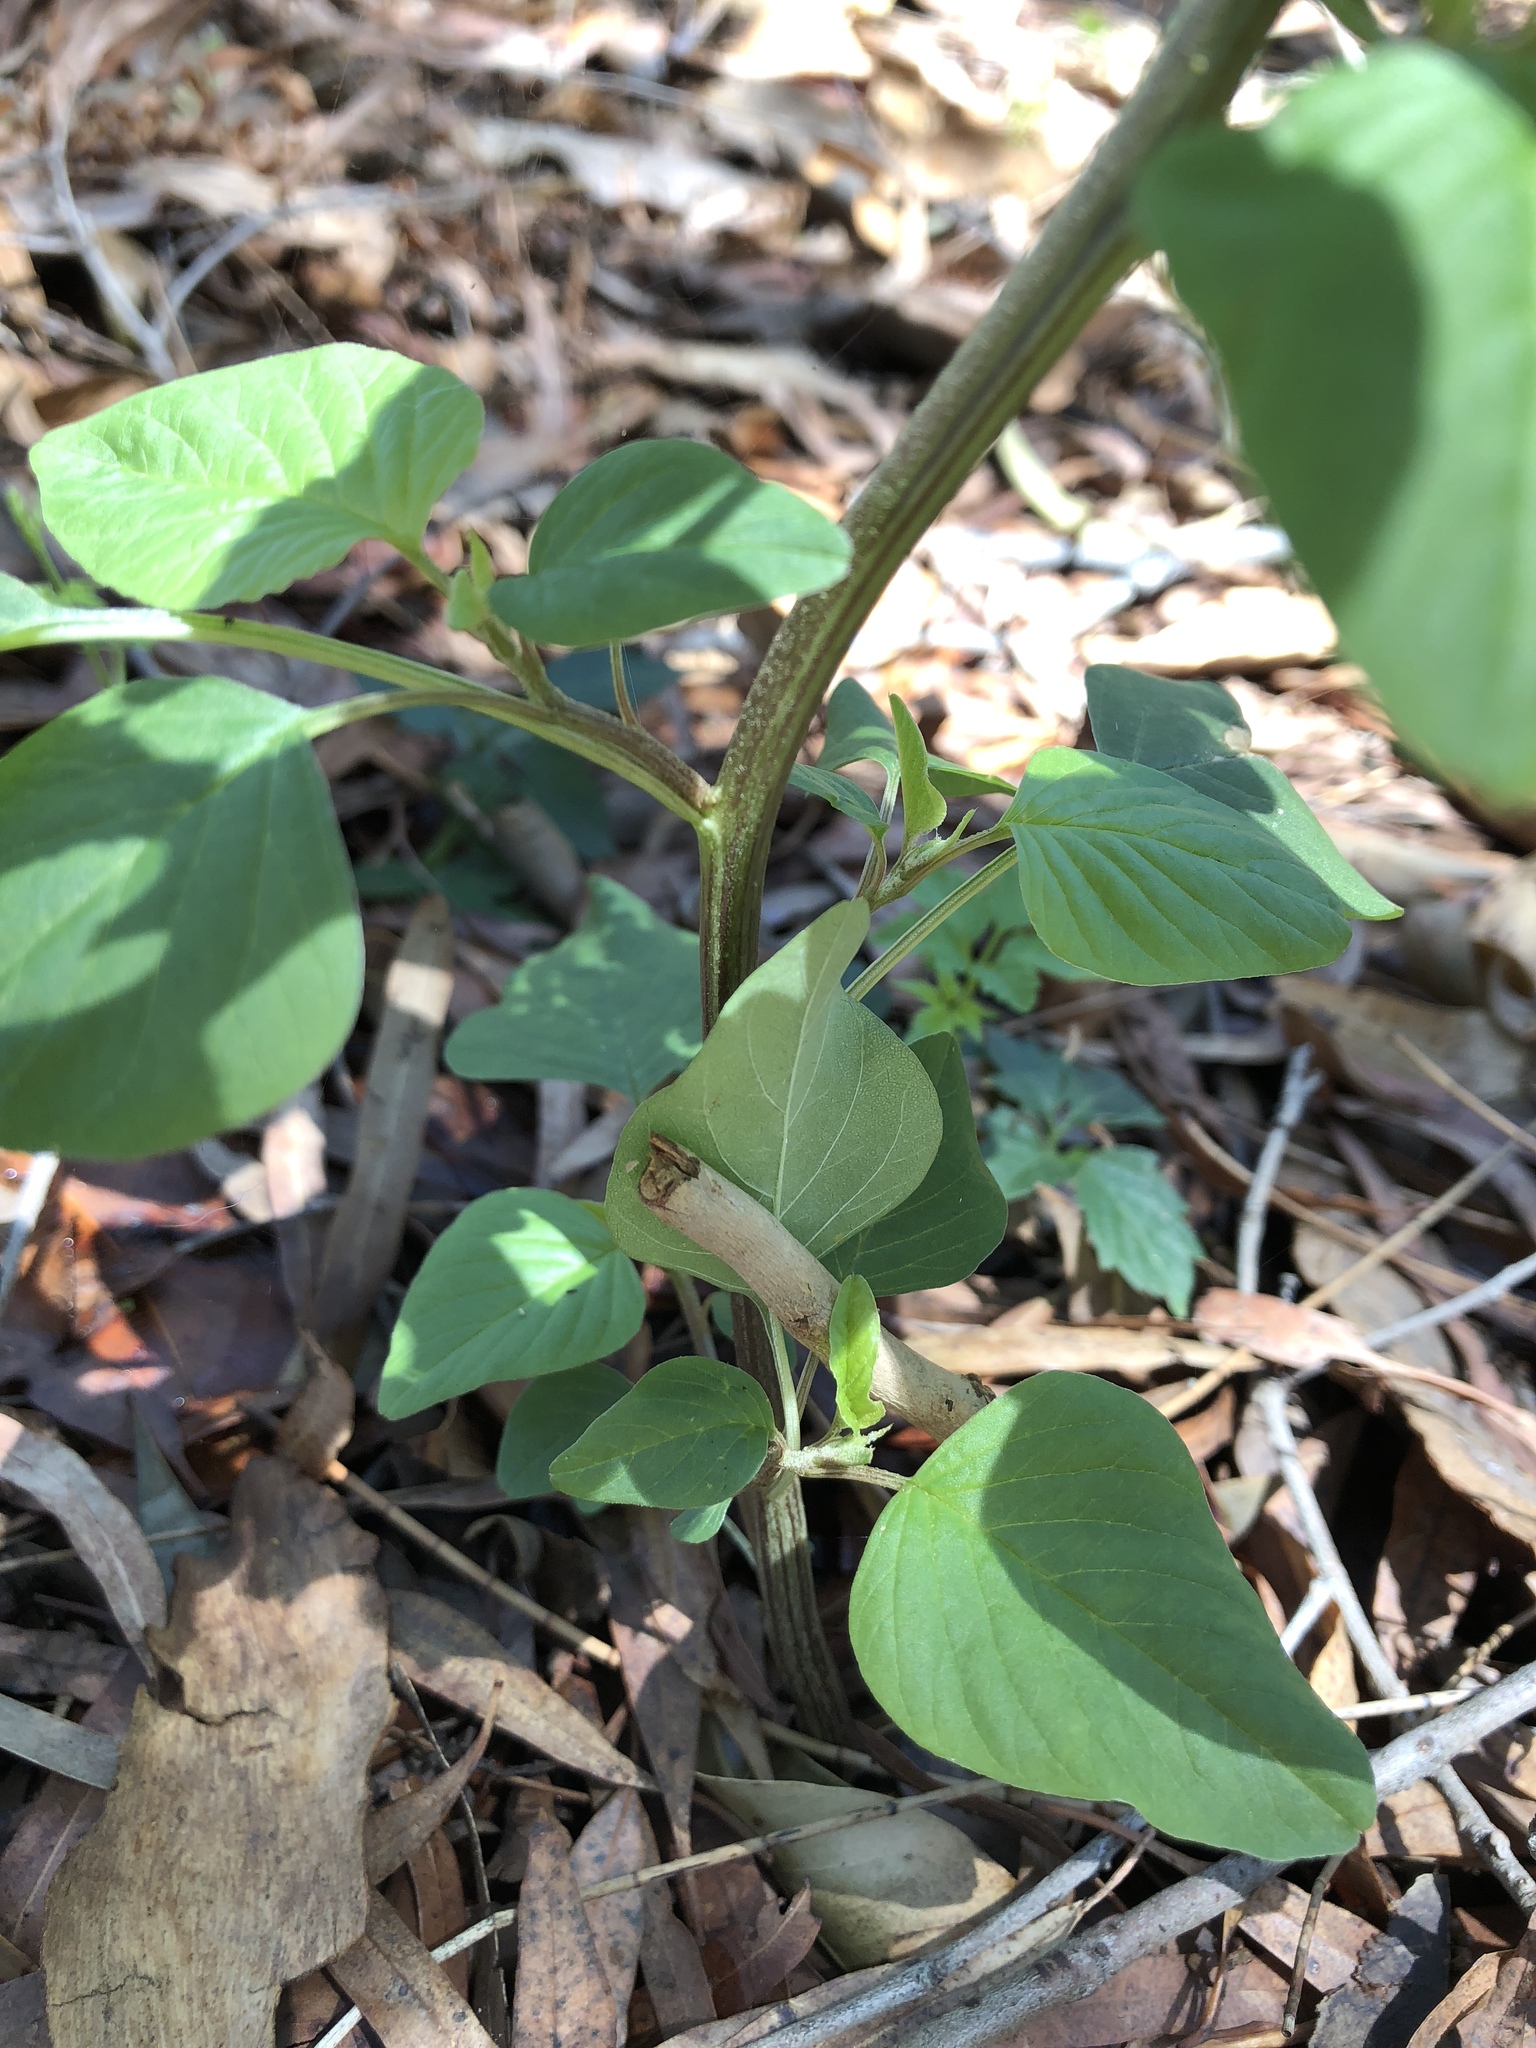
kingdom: Plantae
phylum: Tracheophyta
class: Magnoliopsida
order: Caryophyllales
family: Amaranthaceae
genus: Amaranthus
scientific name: Amaranthus viridis
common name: Slender amaranth
